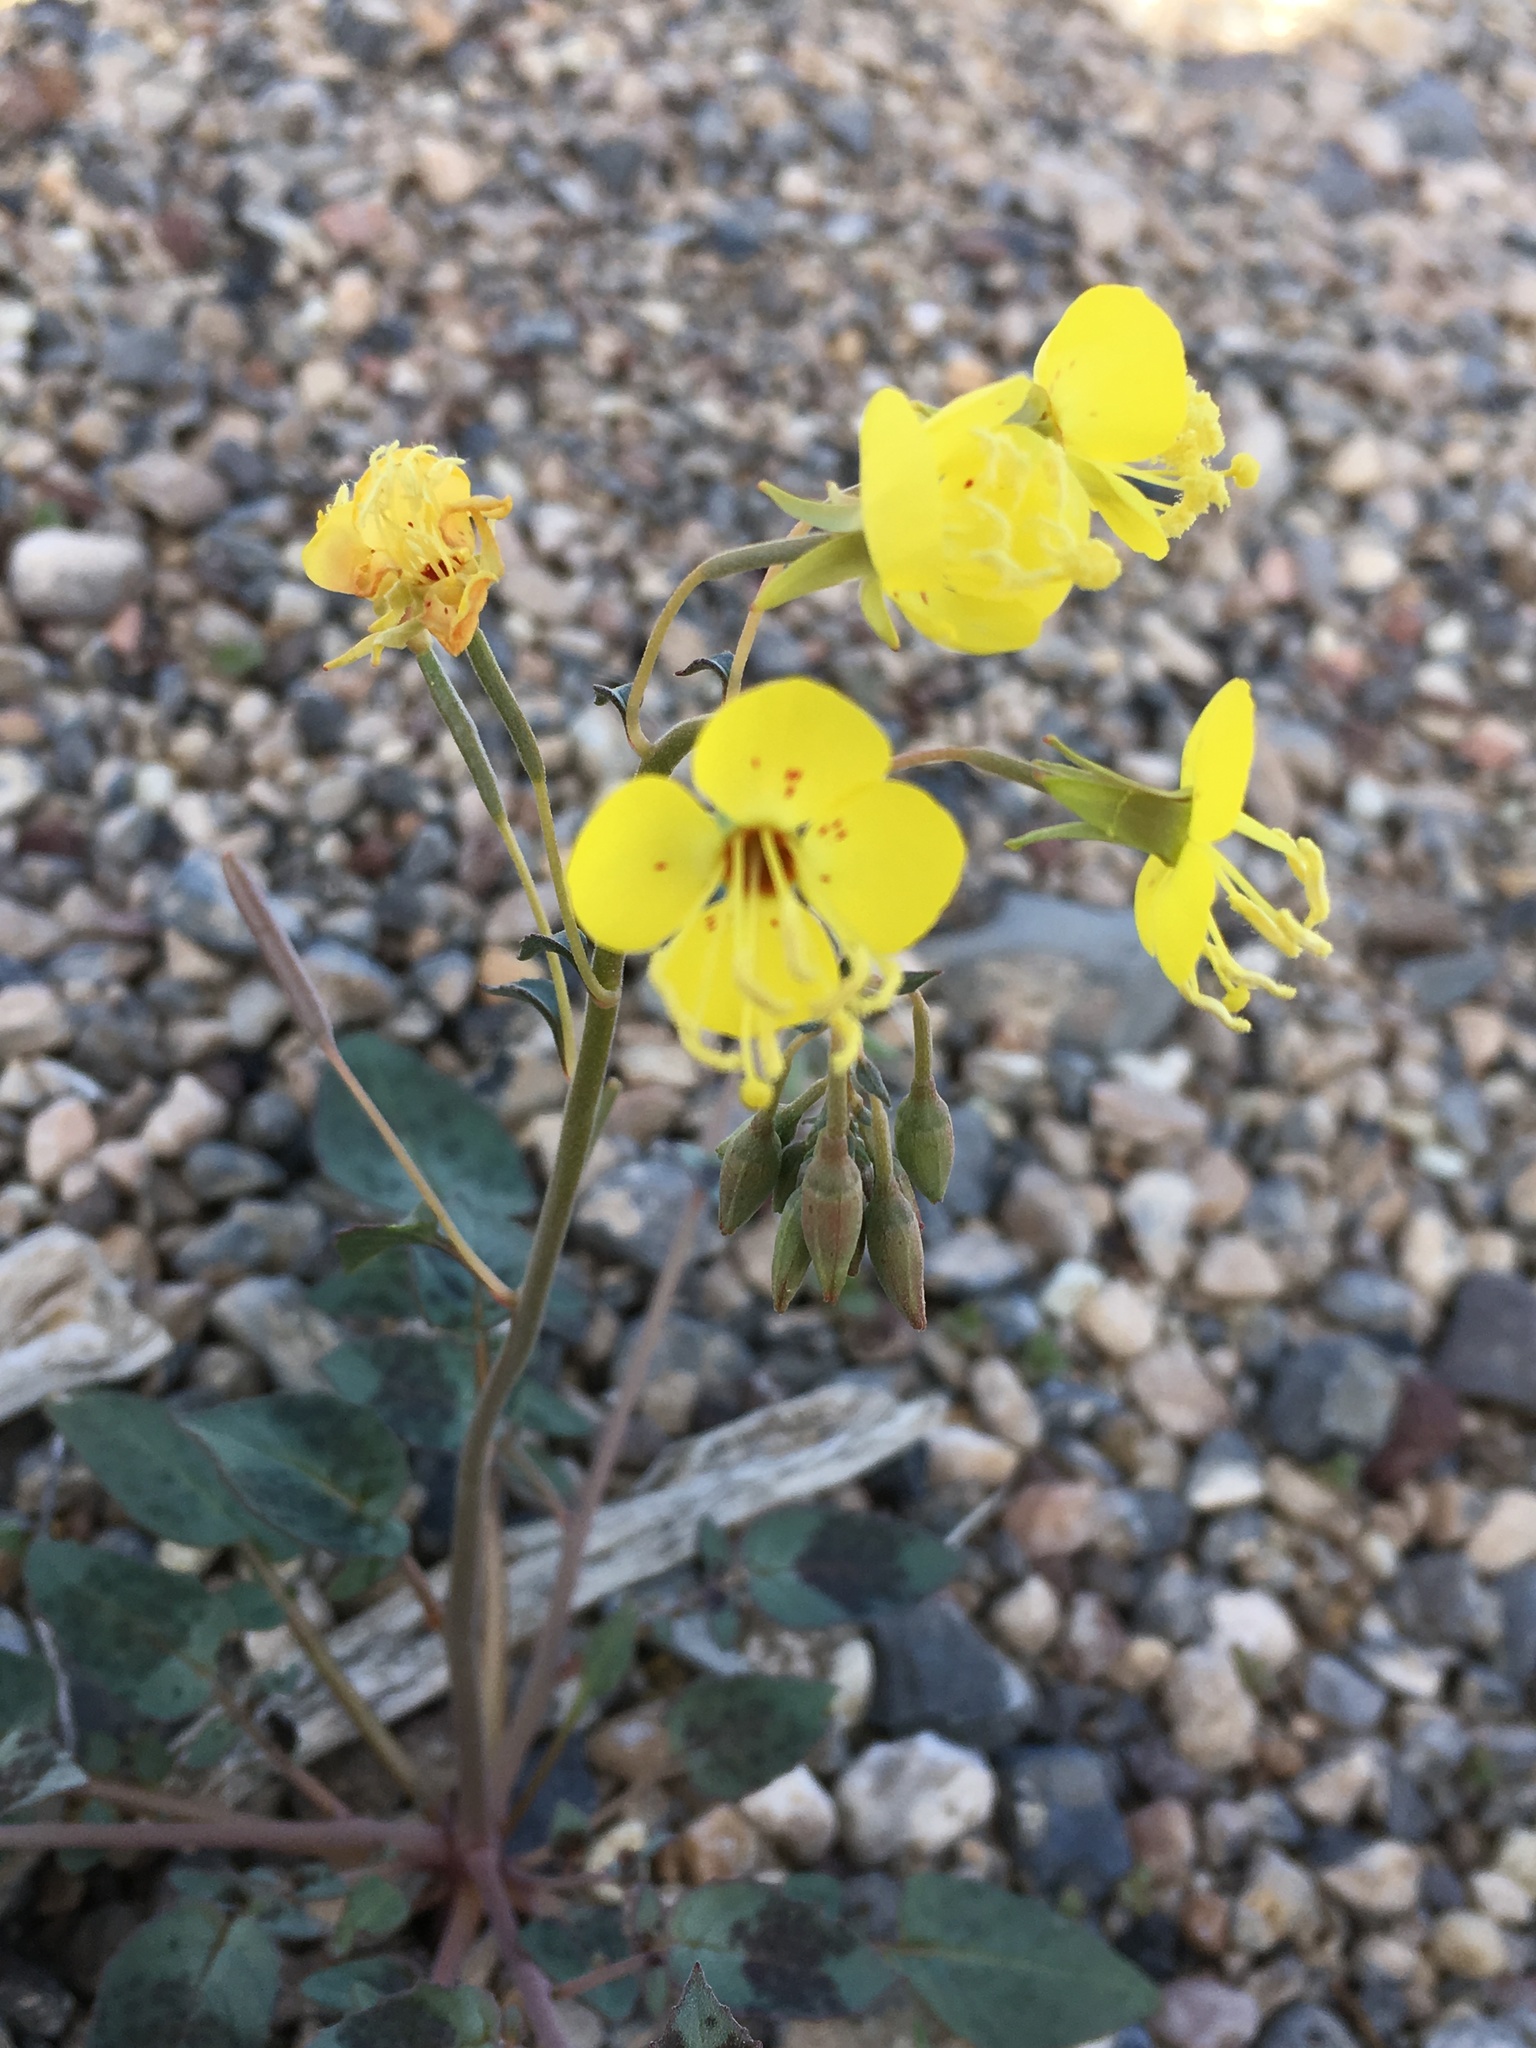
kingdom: Plantae
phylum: Tracheophyta
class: Magnoliopsida
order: Myrtales
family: Onagraceae
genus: Chylismia
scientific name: Chylismia claviformis
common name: Browneyes
